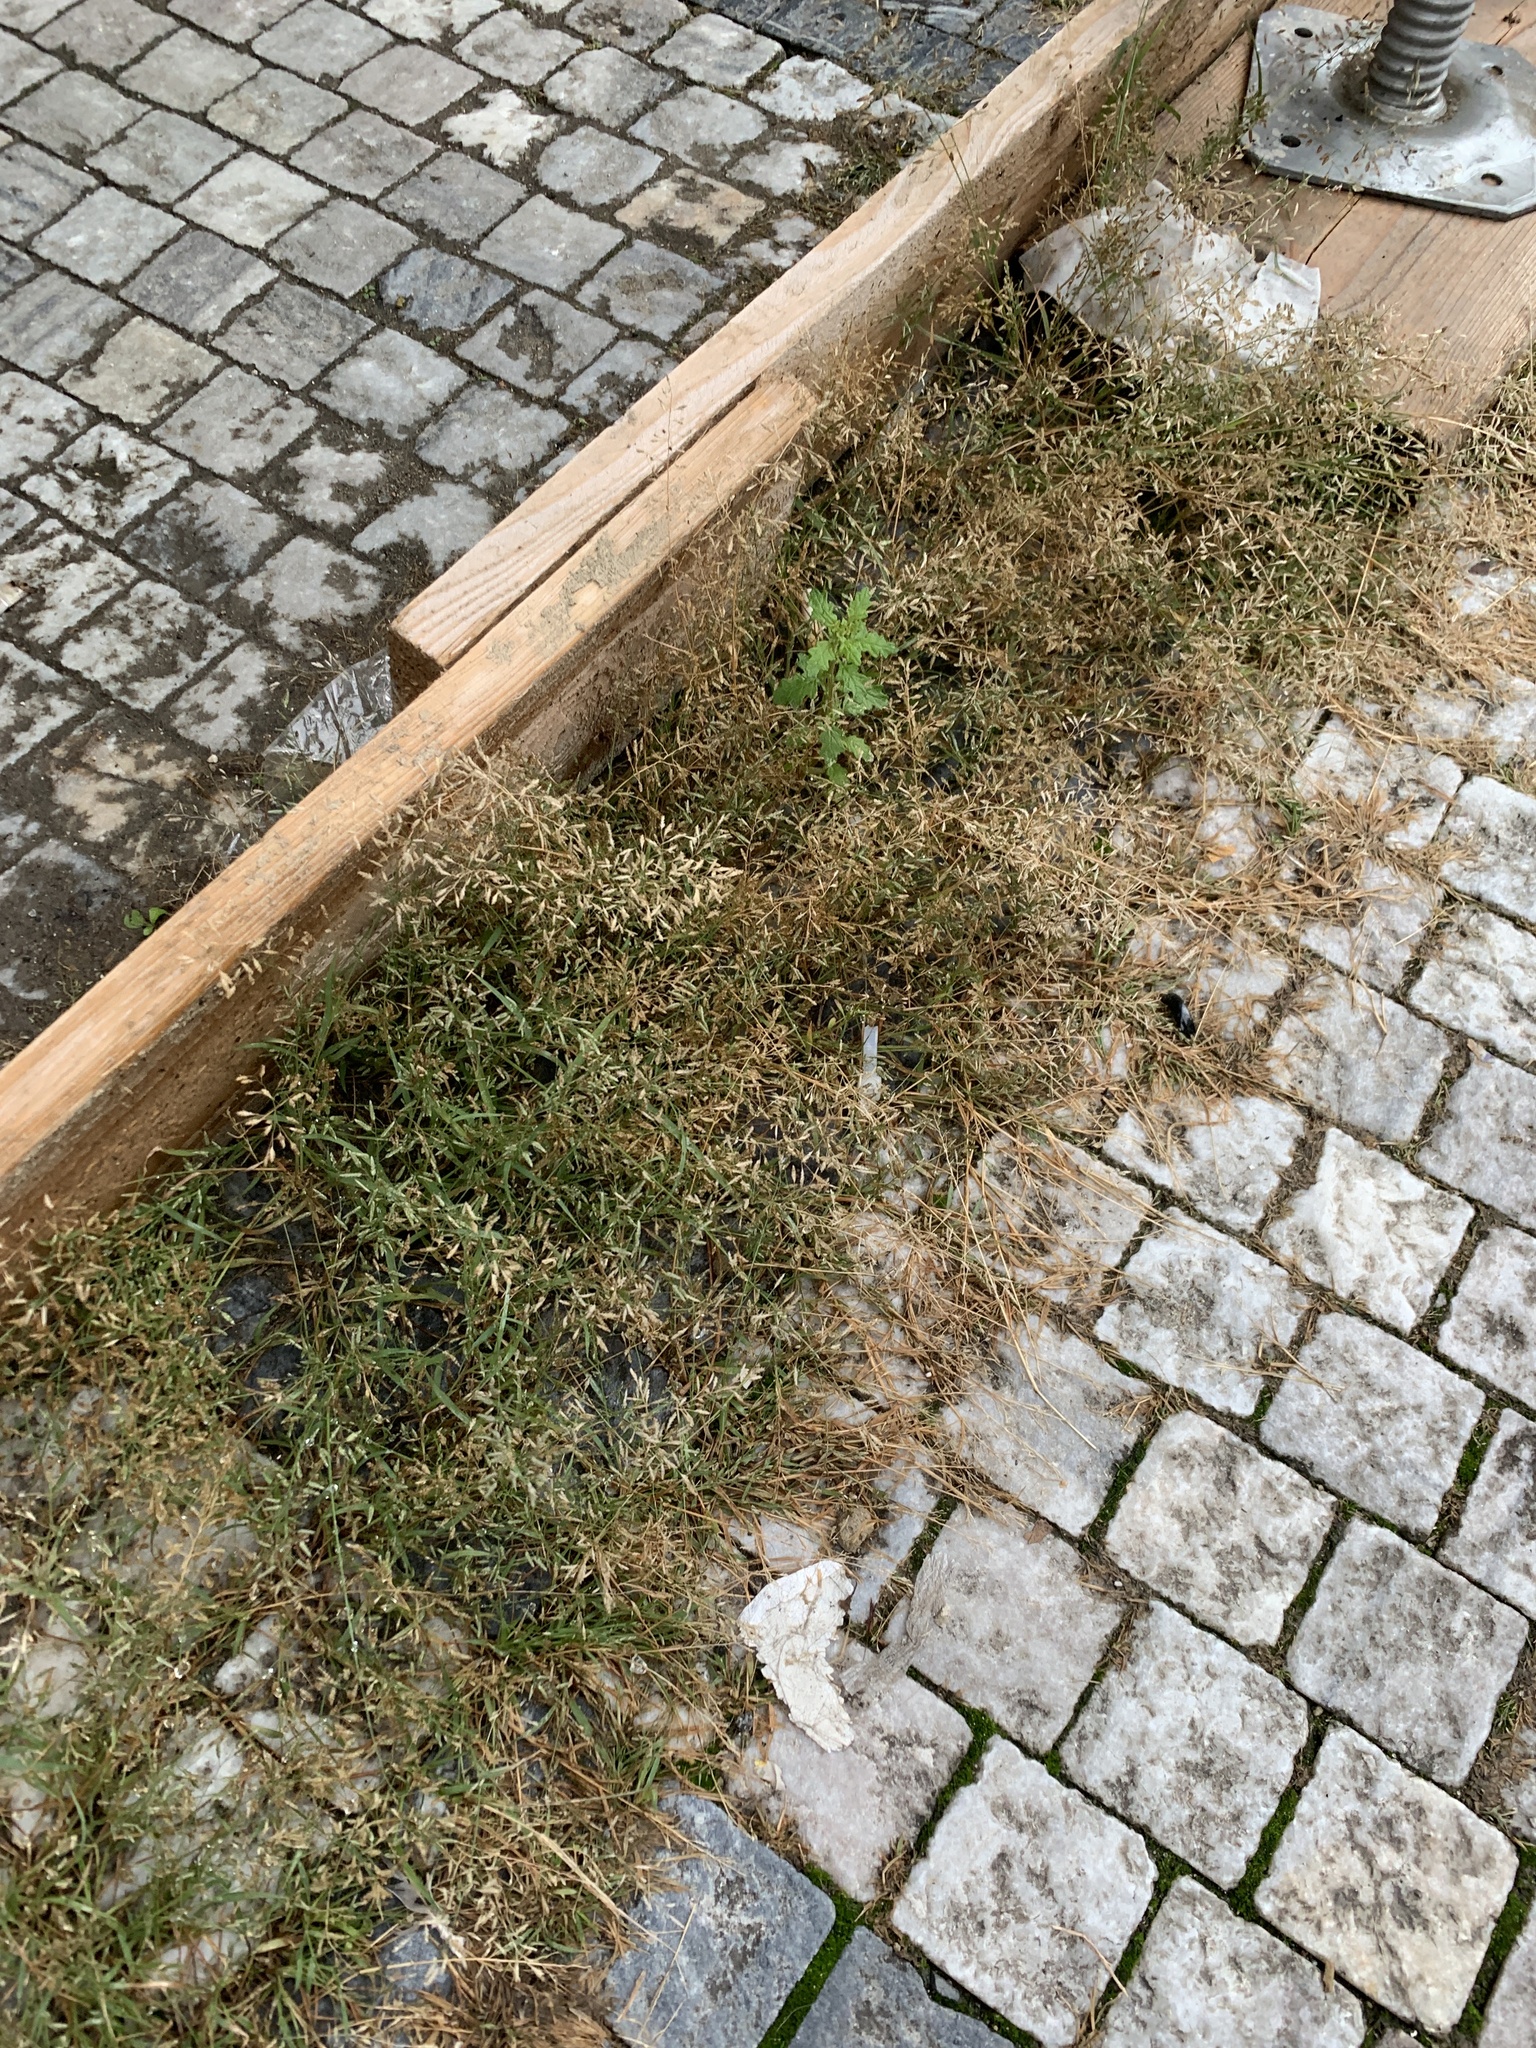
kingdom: Plantae
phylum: Tracheophyta
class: Liliopsida
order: Poales
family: Poaceae
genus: Eragrostis
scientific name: Eragrostis minor
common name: Small love-grass
